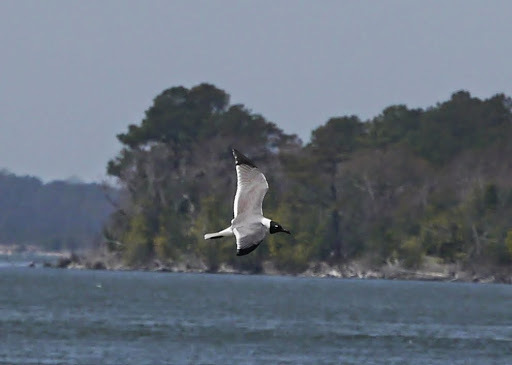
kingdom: Animalia
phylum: Chordata
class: Aves
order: Charadriiformes
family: Laridae
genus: Leucophaeus
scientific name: Leucophaeus atricilla
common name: Laughing gull
